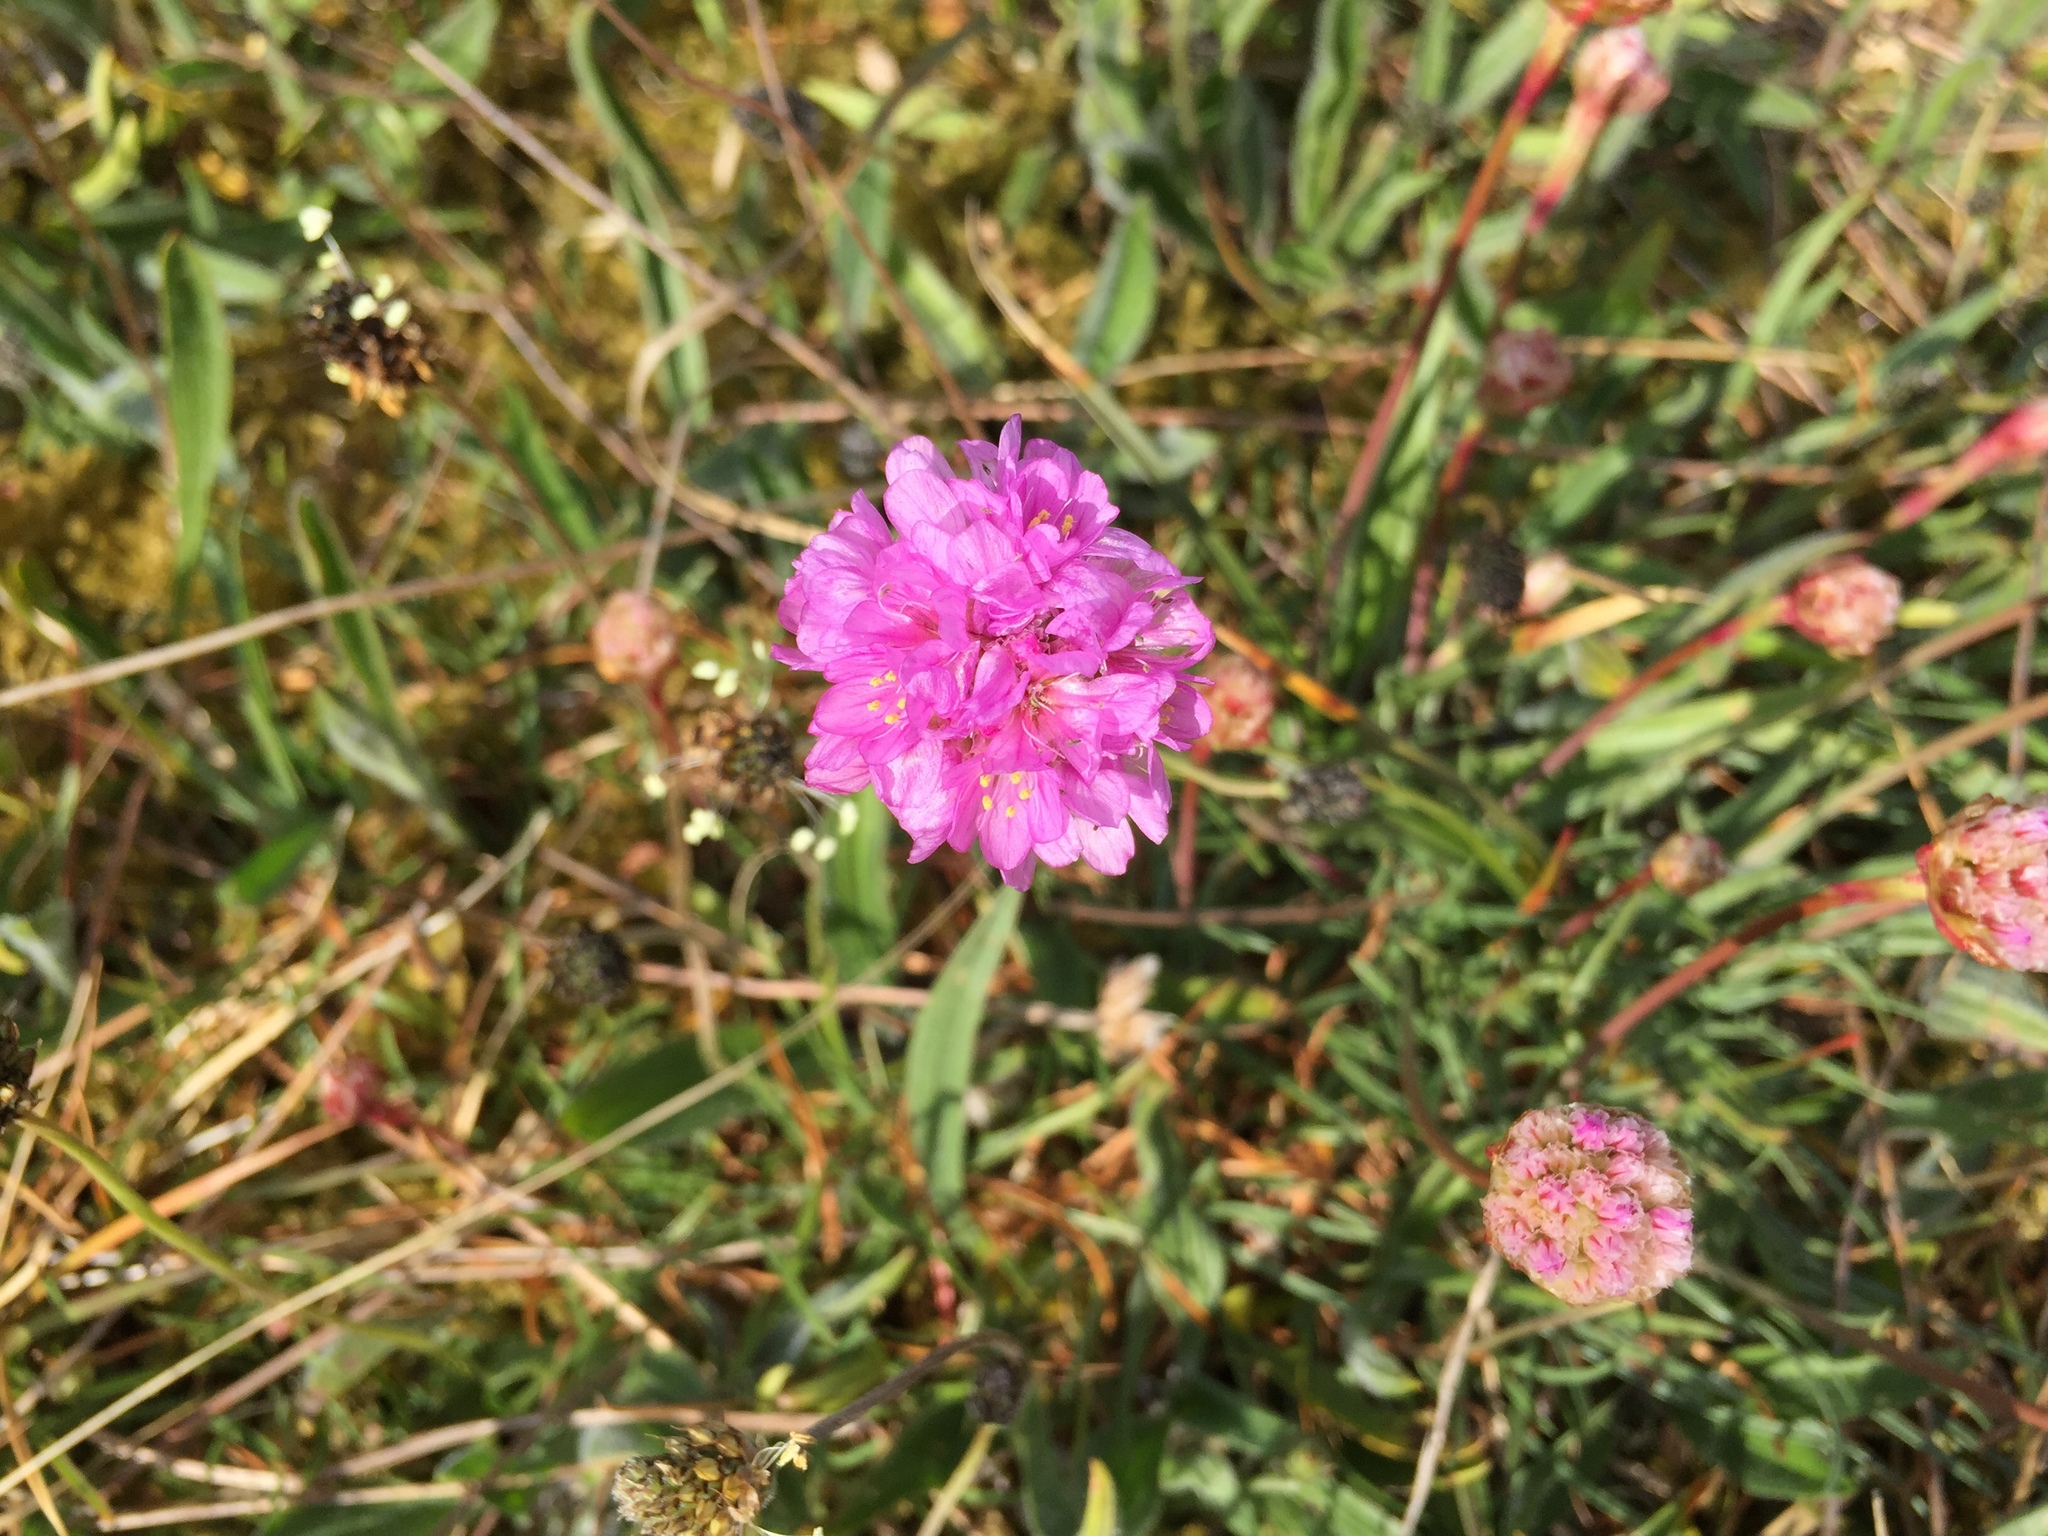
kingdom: Plantae
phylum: Tracheophyta
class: Magnoliopsida
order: Caryophyllales
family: Plumbaginaceae
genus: Armeria
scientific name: Armeria maritima
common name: Thrift
